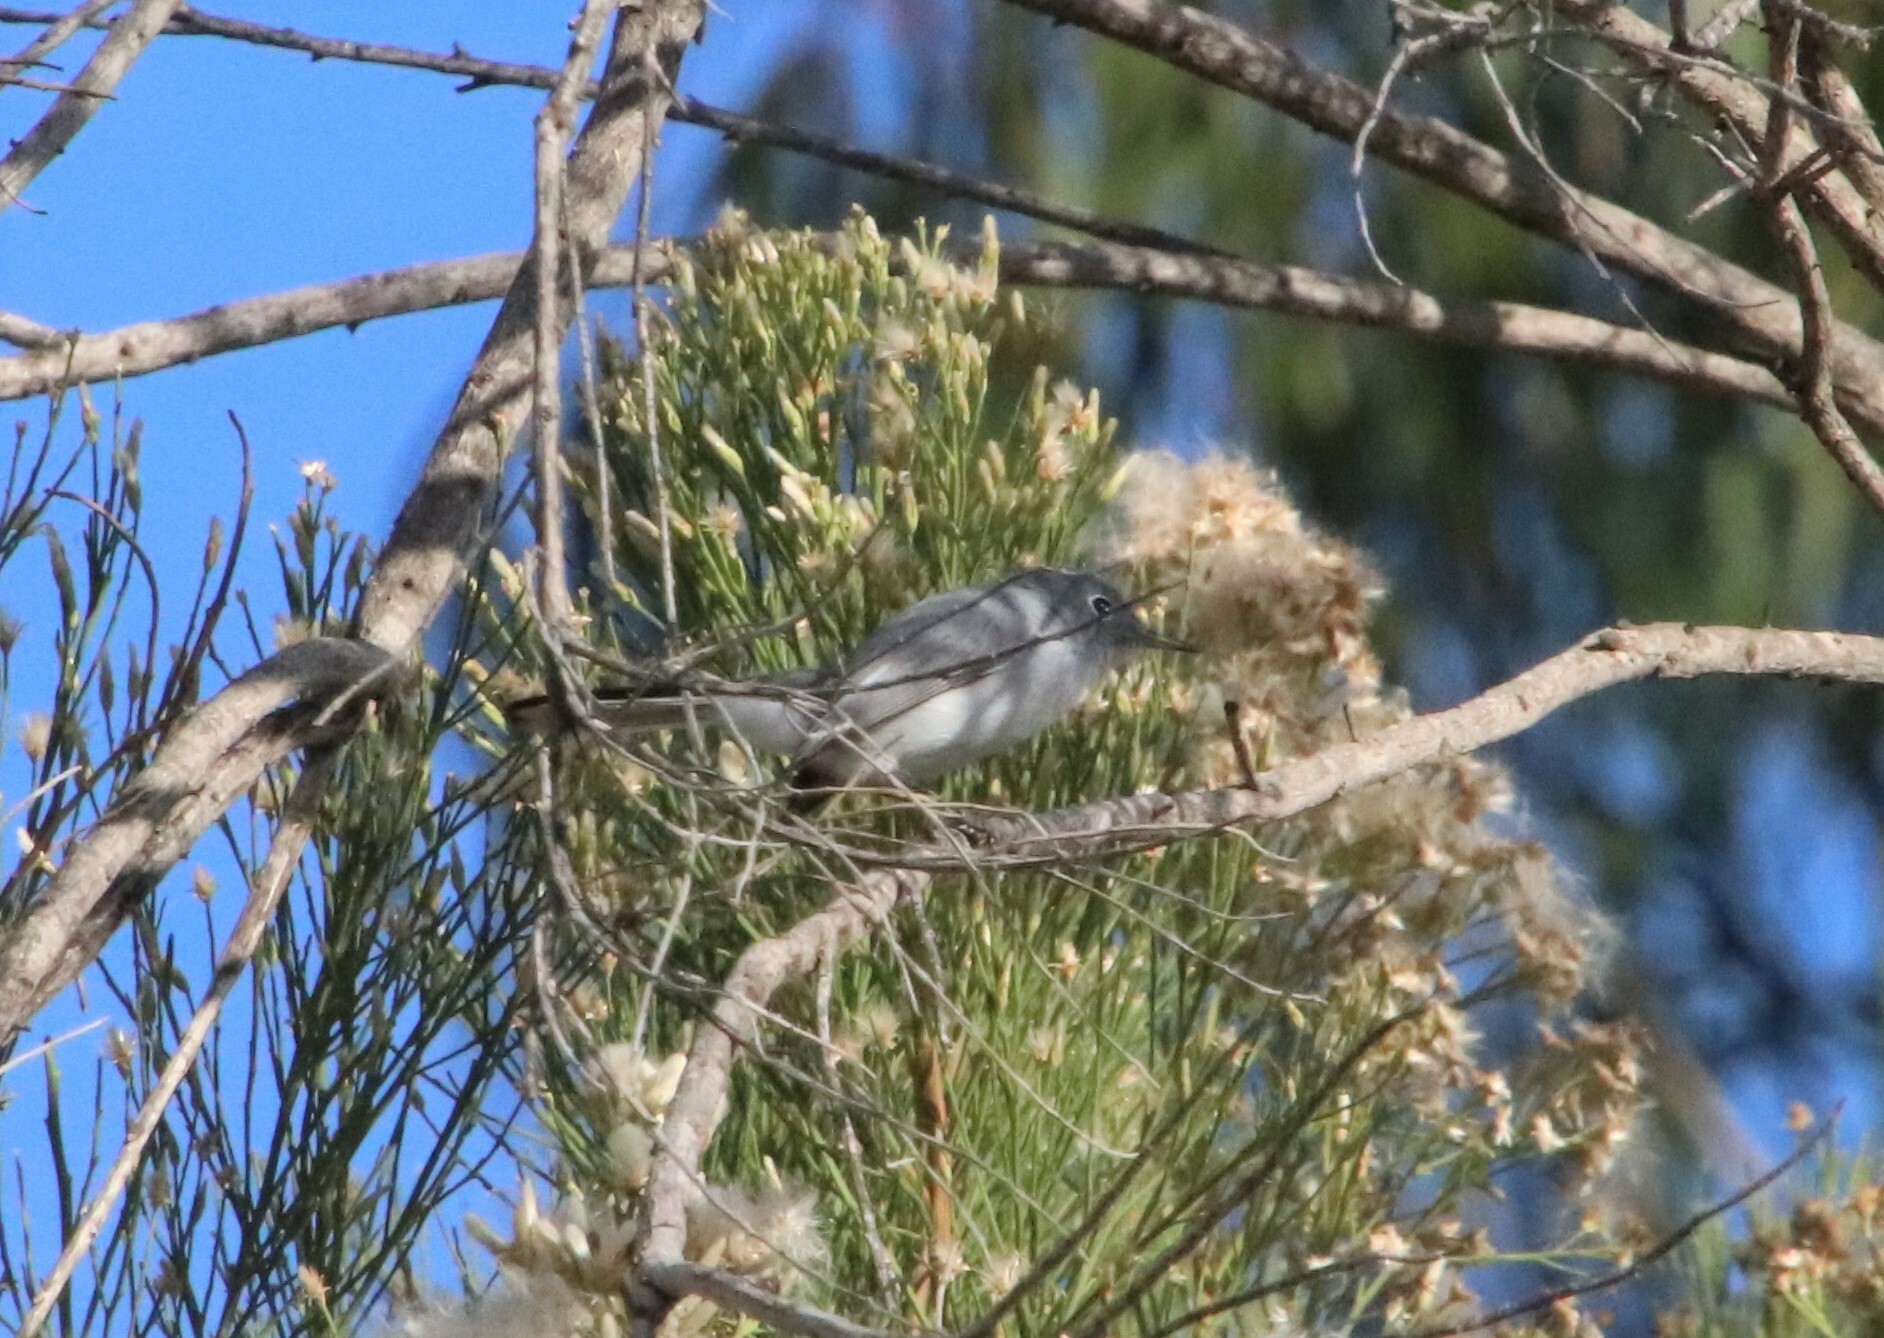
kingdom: Animalia
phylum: Chordata
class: Aves
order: Passeriformes
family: Polioptilidae
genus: Polioptila
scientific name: Polioptila caerulea
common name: Blue-gray gnatcatcher
